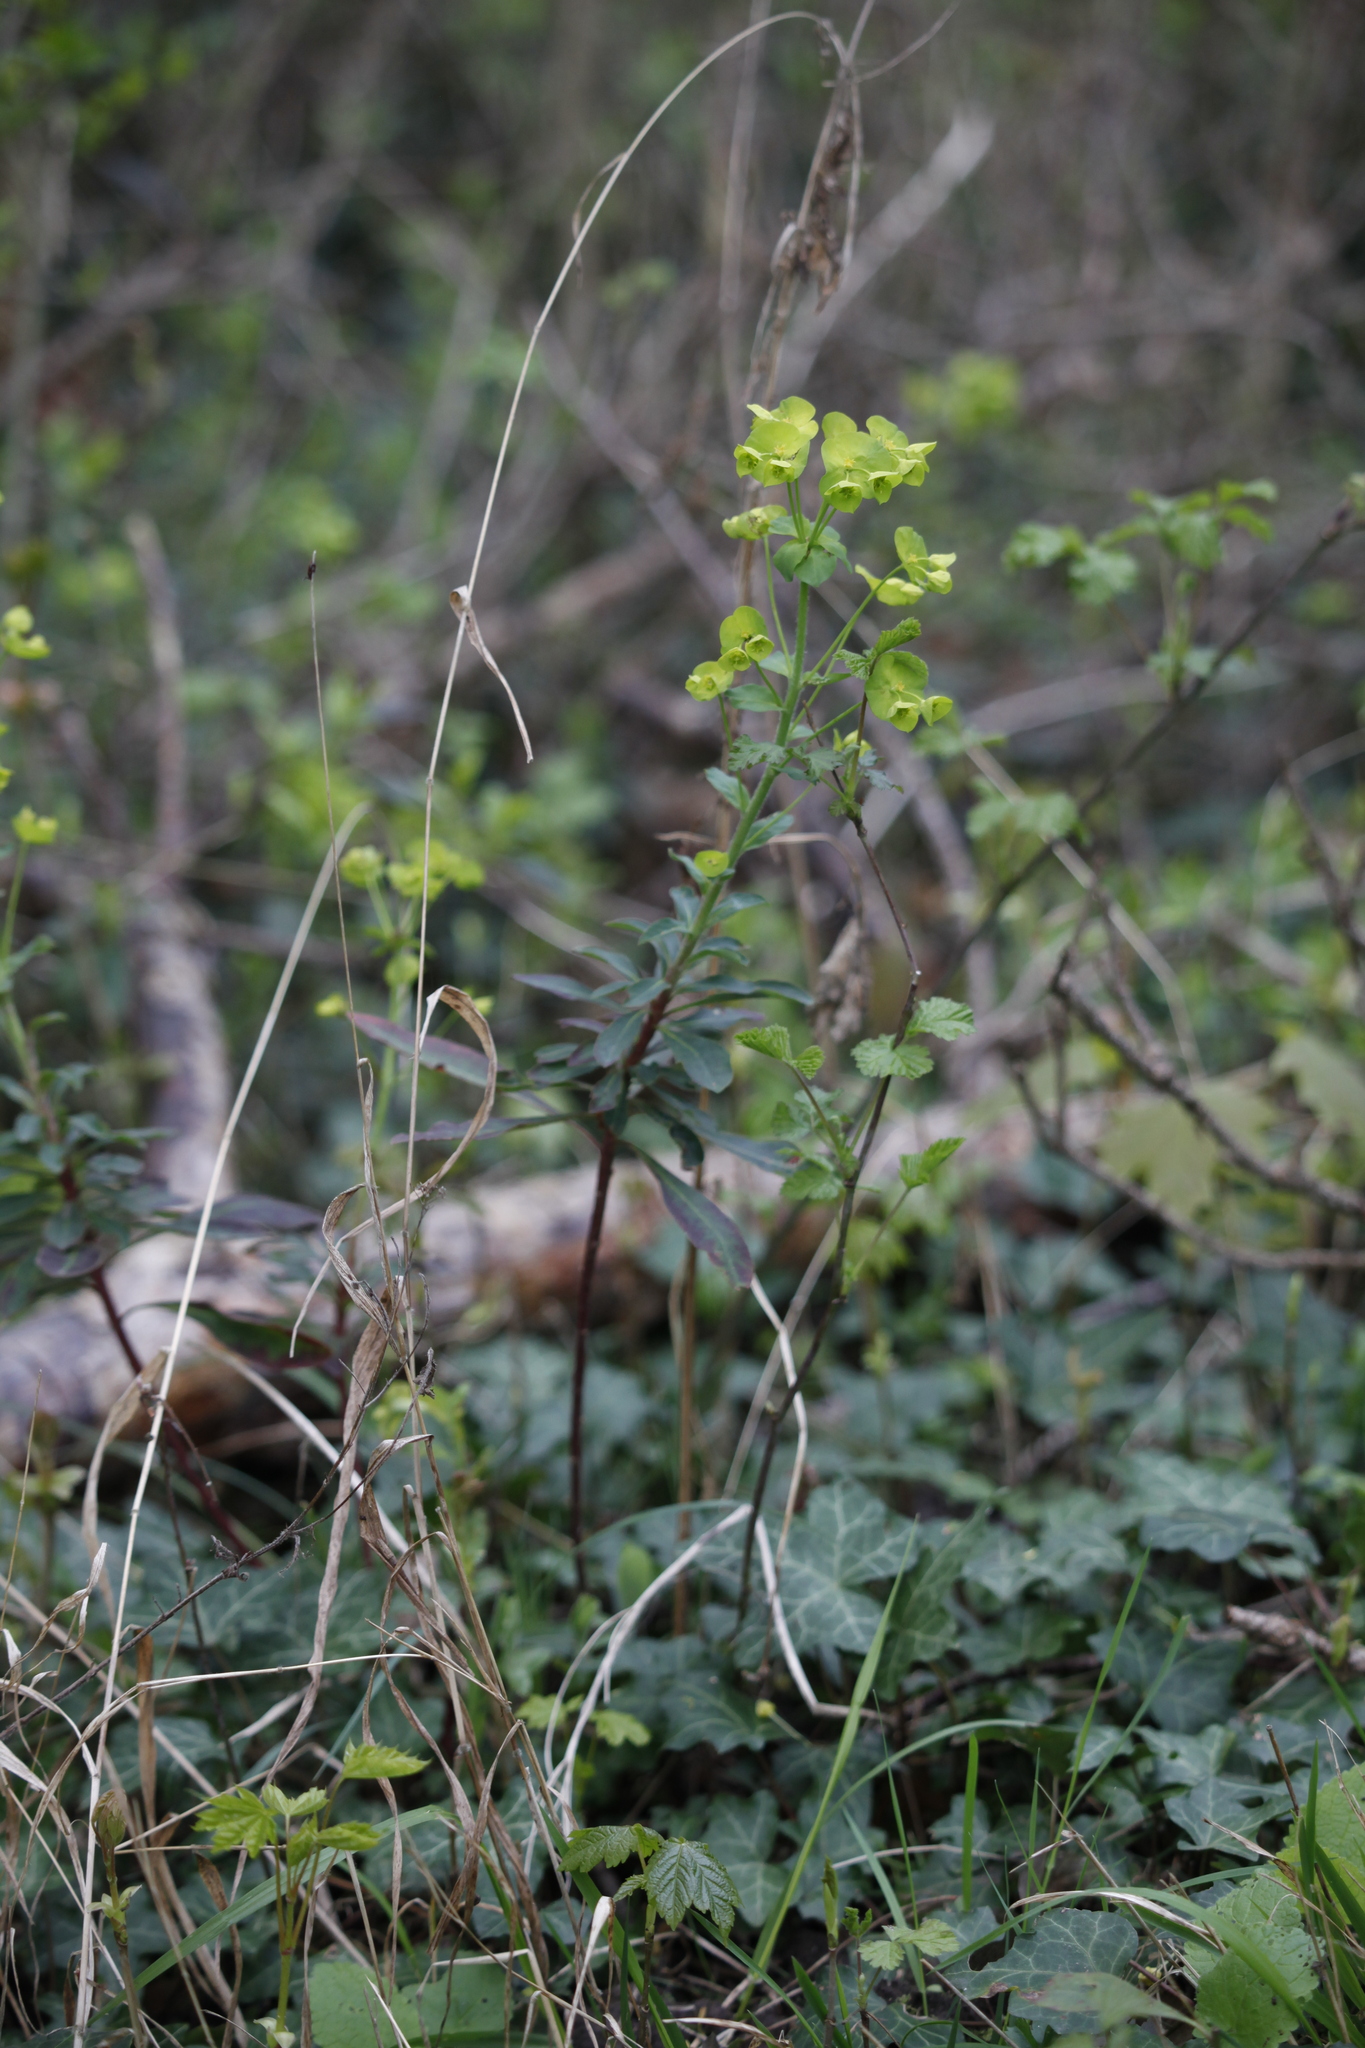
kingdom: Plantae
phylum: Tracheophyta
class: Magnoliopsida
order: Malpighiales
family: Euphorbiaceae
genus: Euphorbia
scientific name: Euphorbia amygdaloides
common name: Wood spurge
